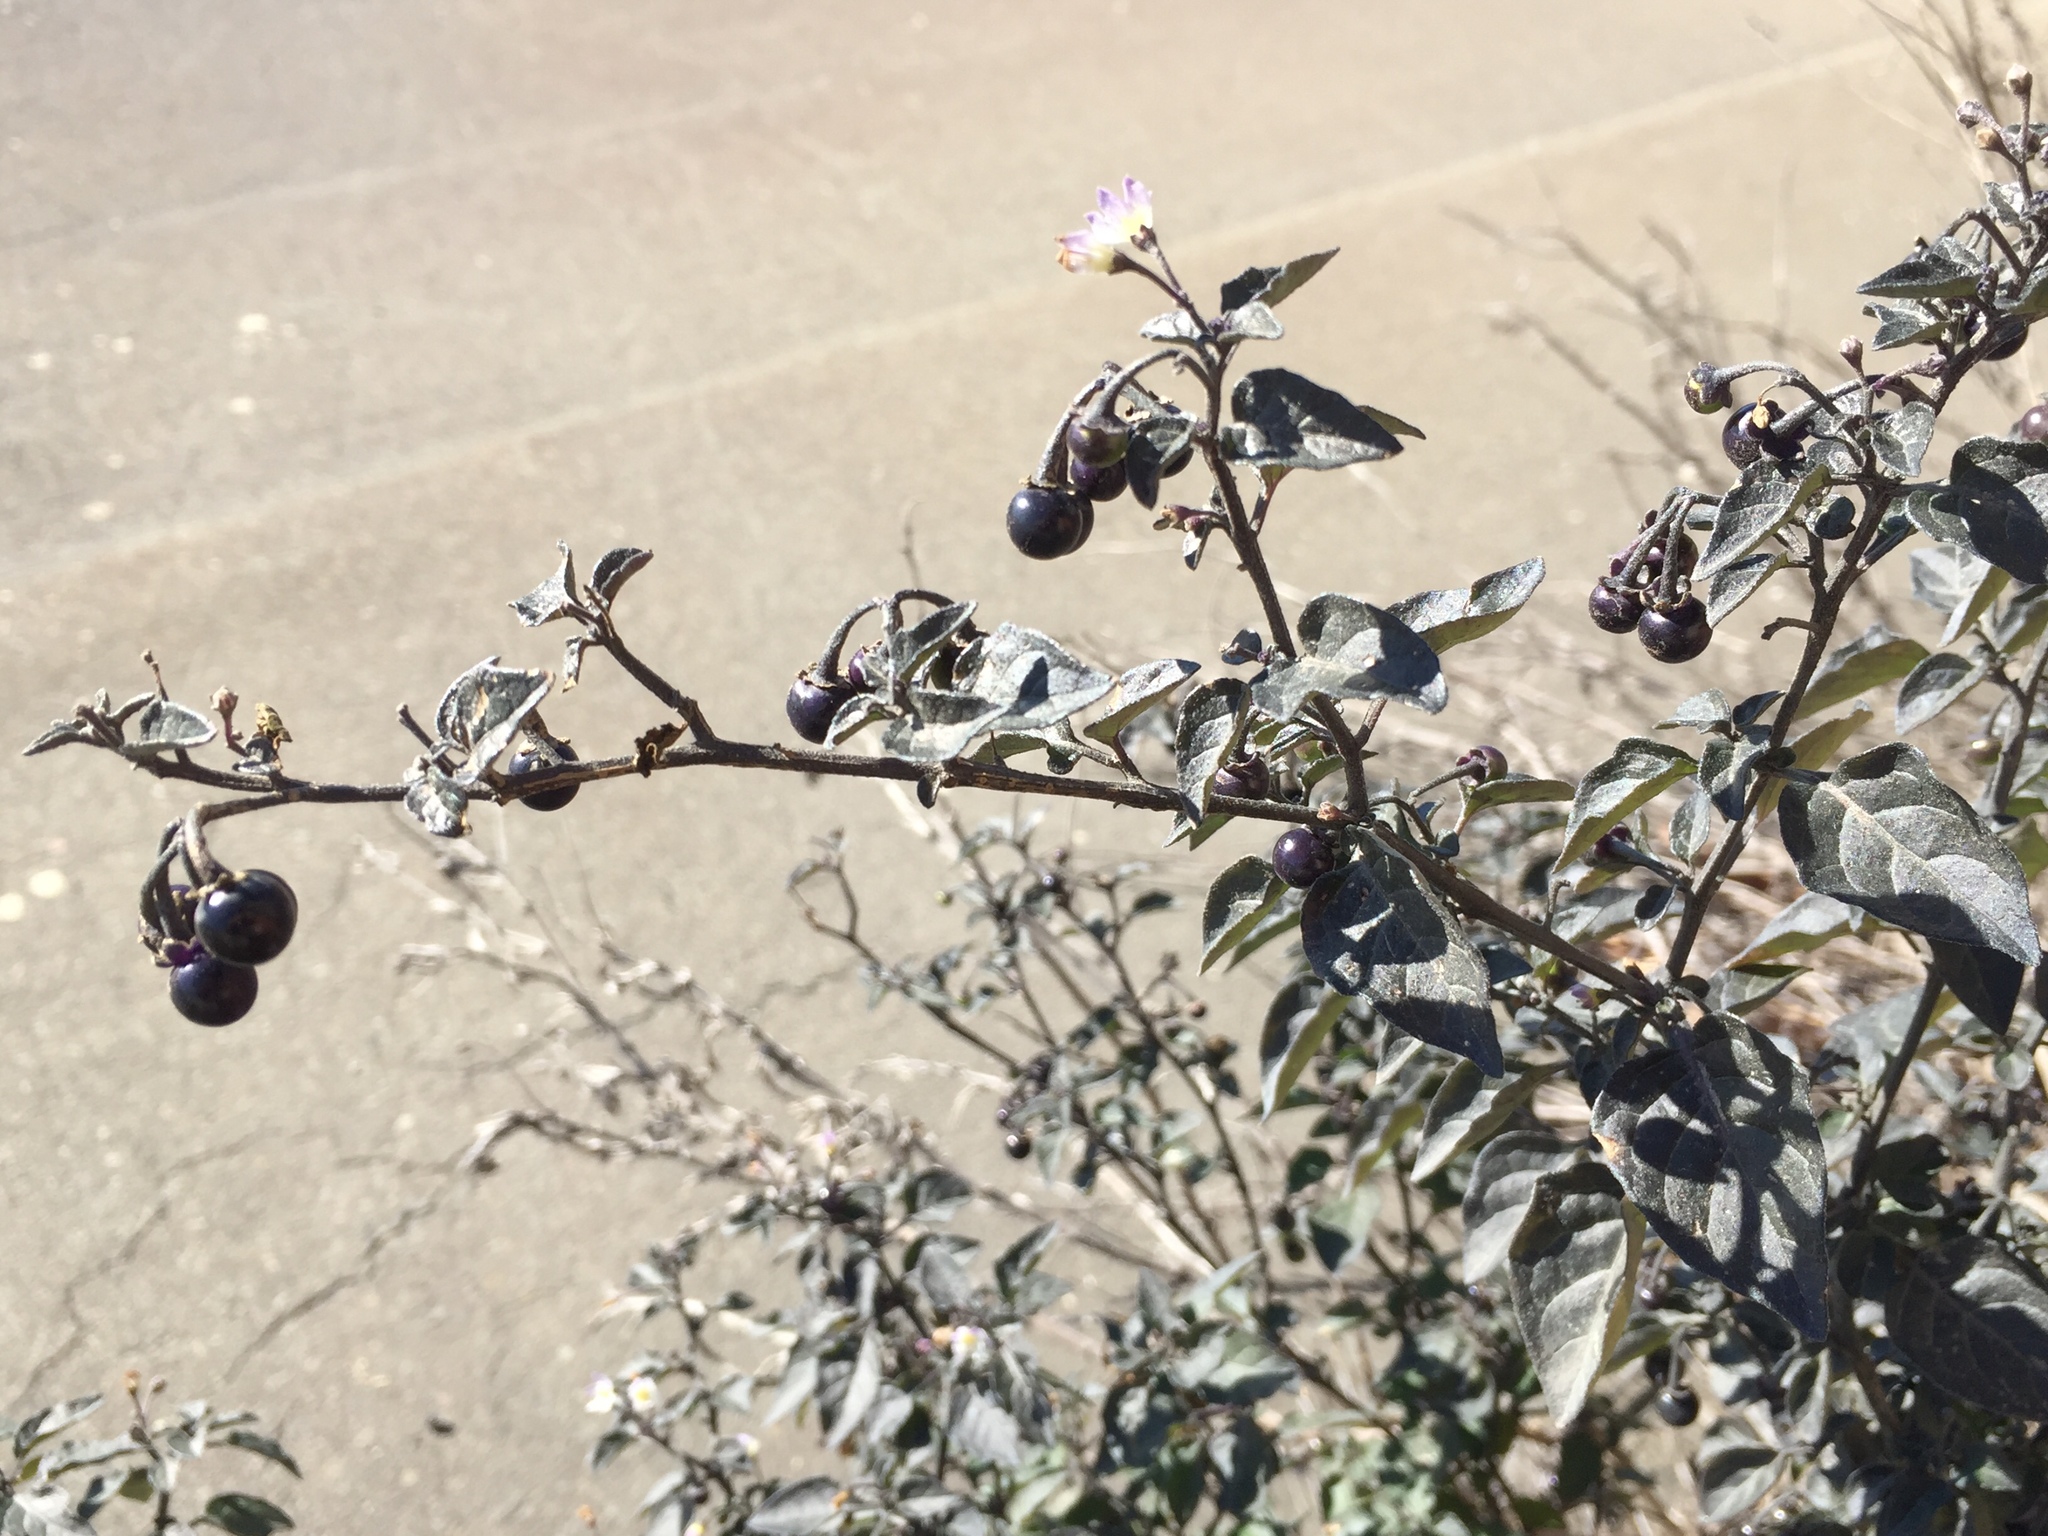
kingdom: Plantae
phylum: Tracheophyta
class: Magnoliopsida
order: Solanales
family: Solanaceae
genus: Solanum
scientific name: Solanum nigrum
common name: Black nightshade
